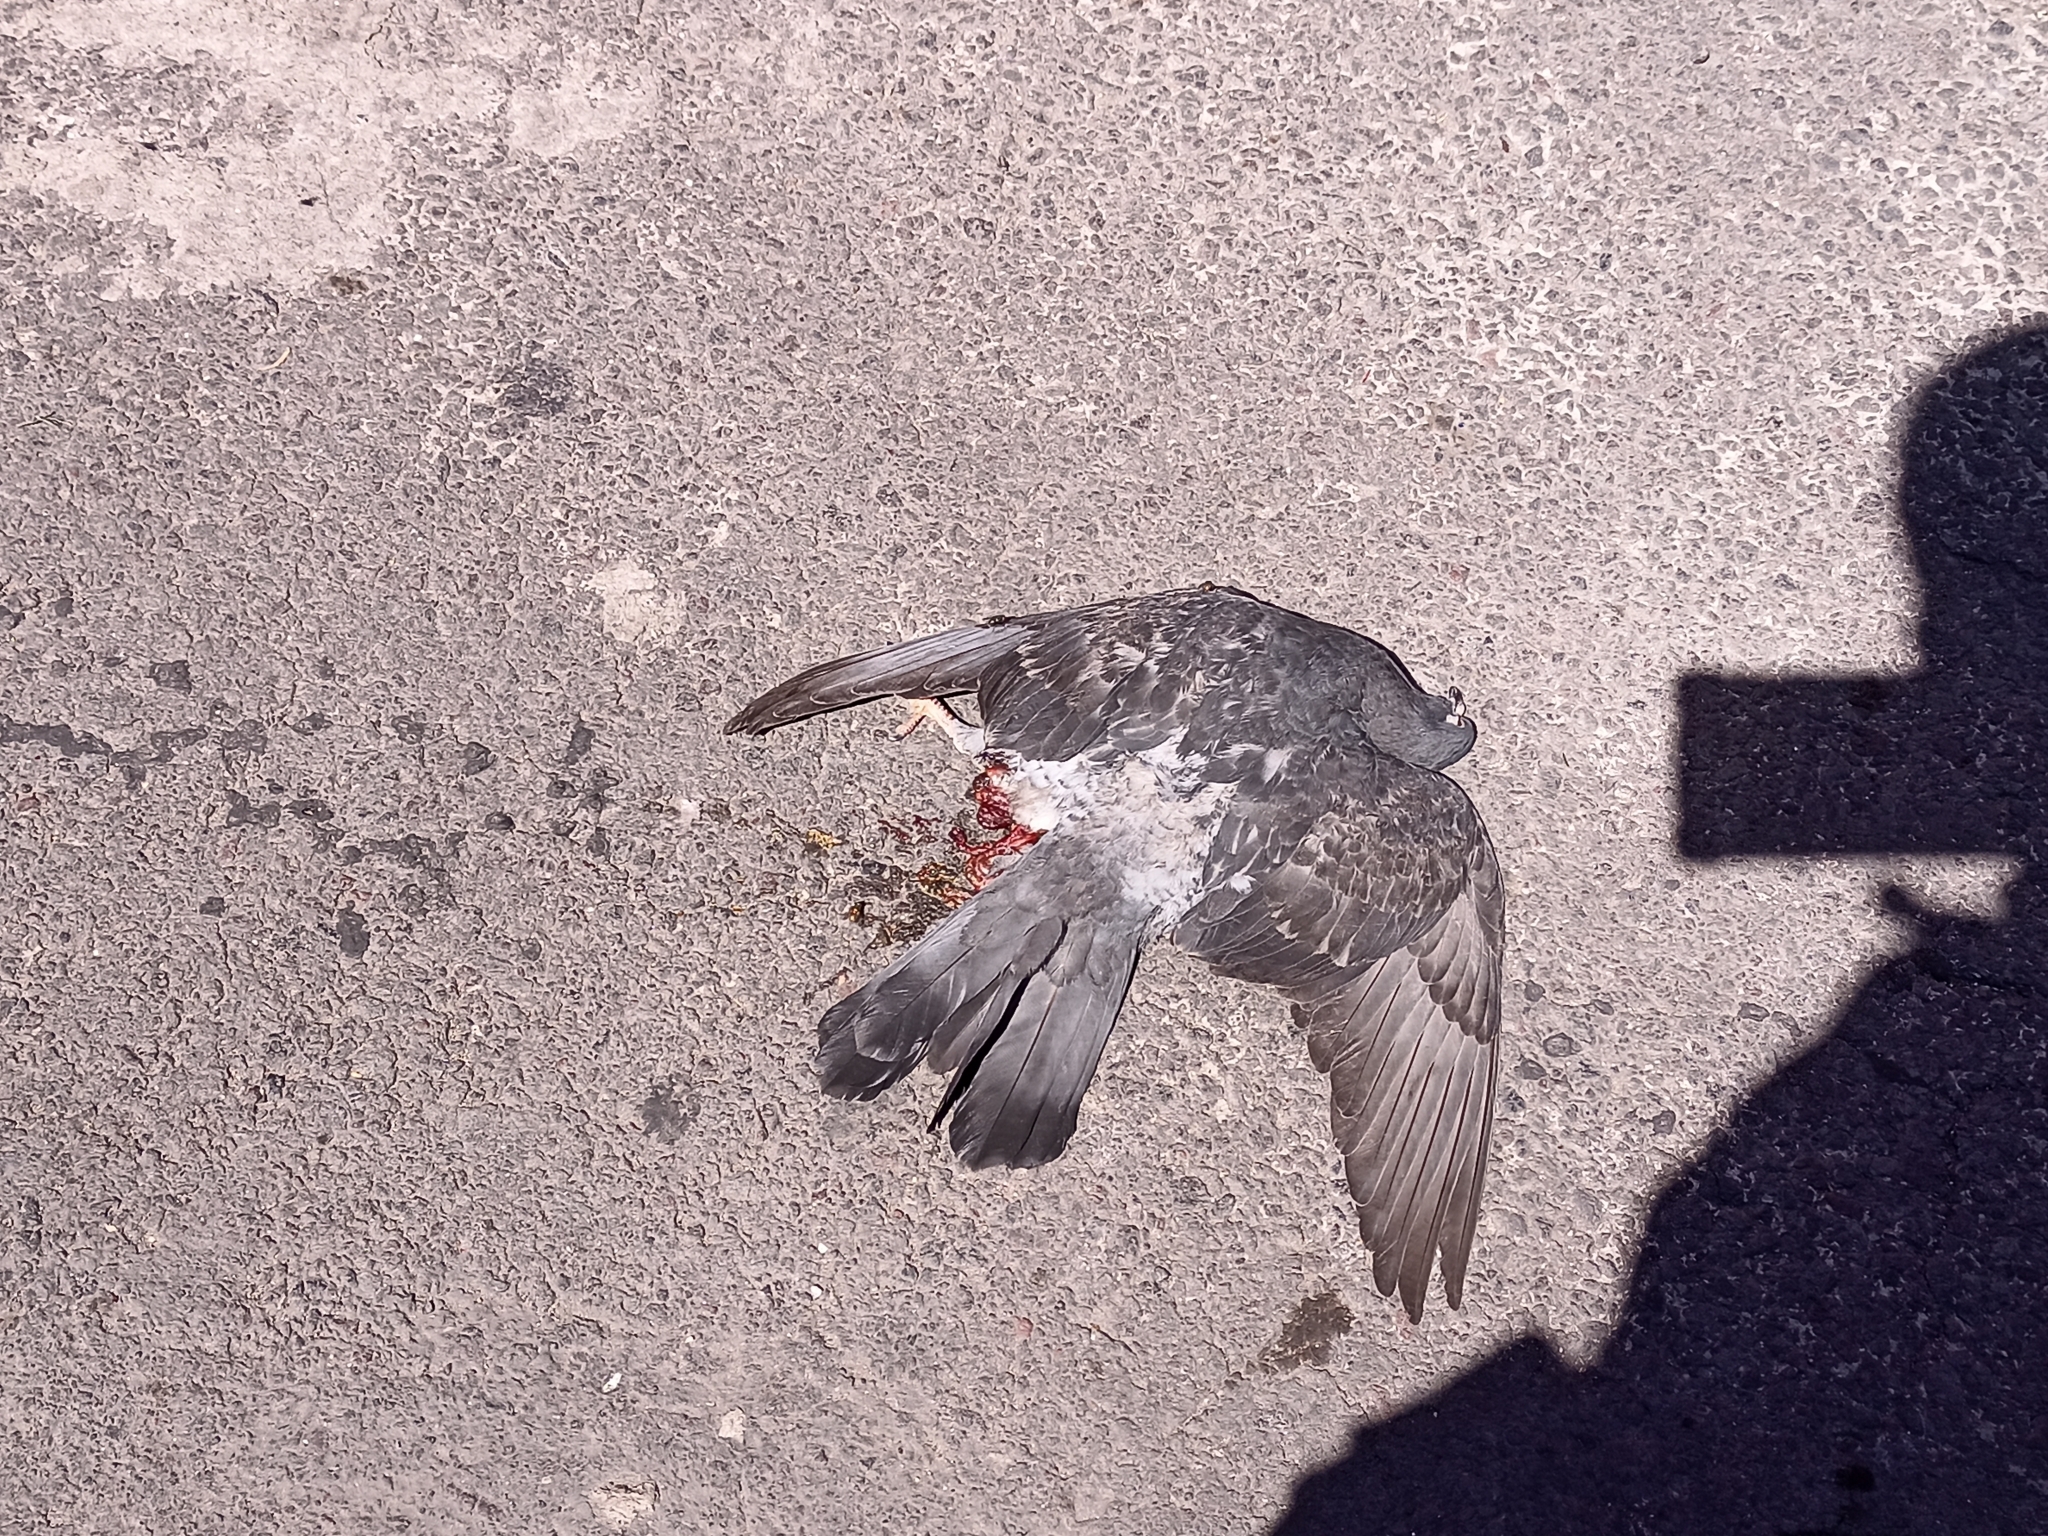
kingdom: Animalia
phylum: Chordata
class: Aves
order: Columbiformes
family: Columbidae
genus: Columba
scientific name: Columba livia
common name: Rock pigeon
